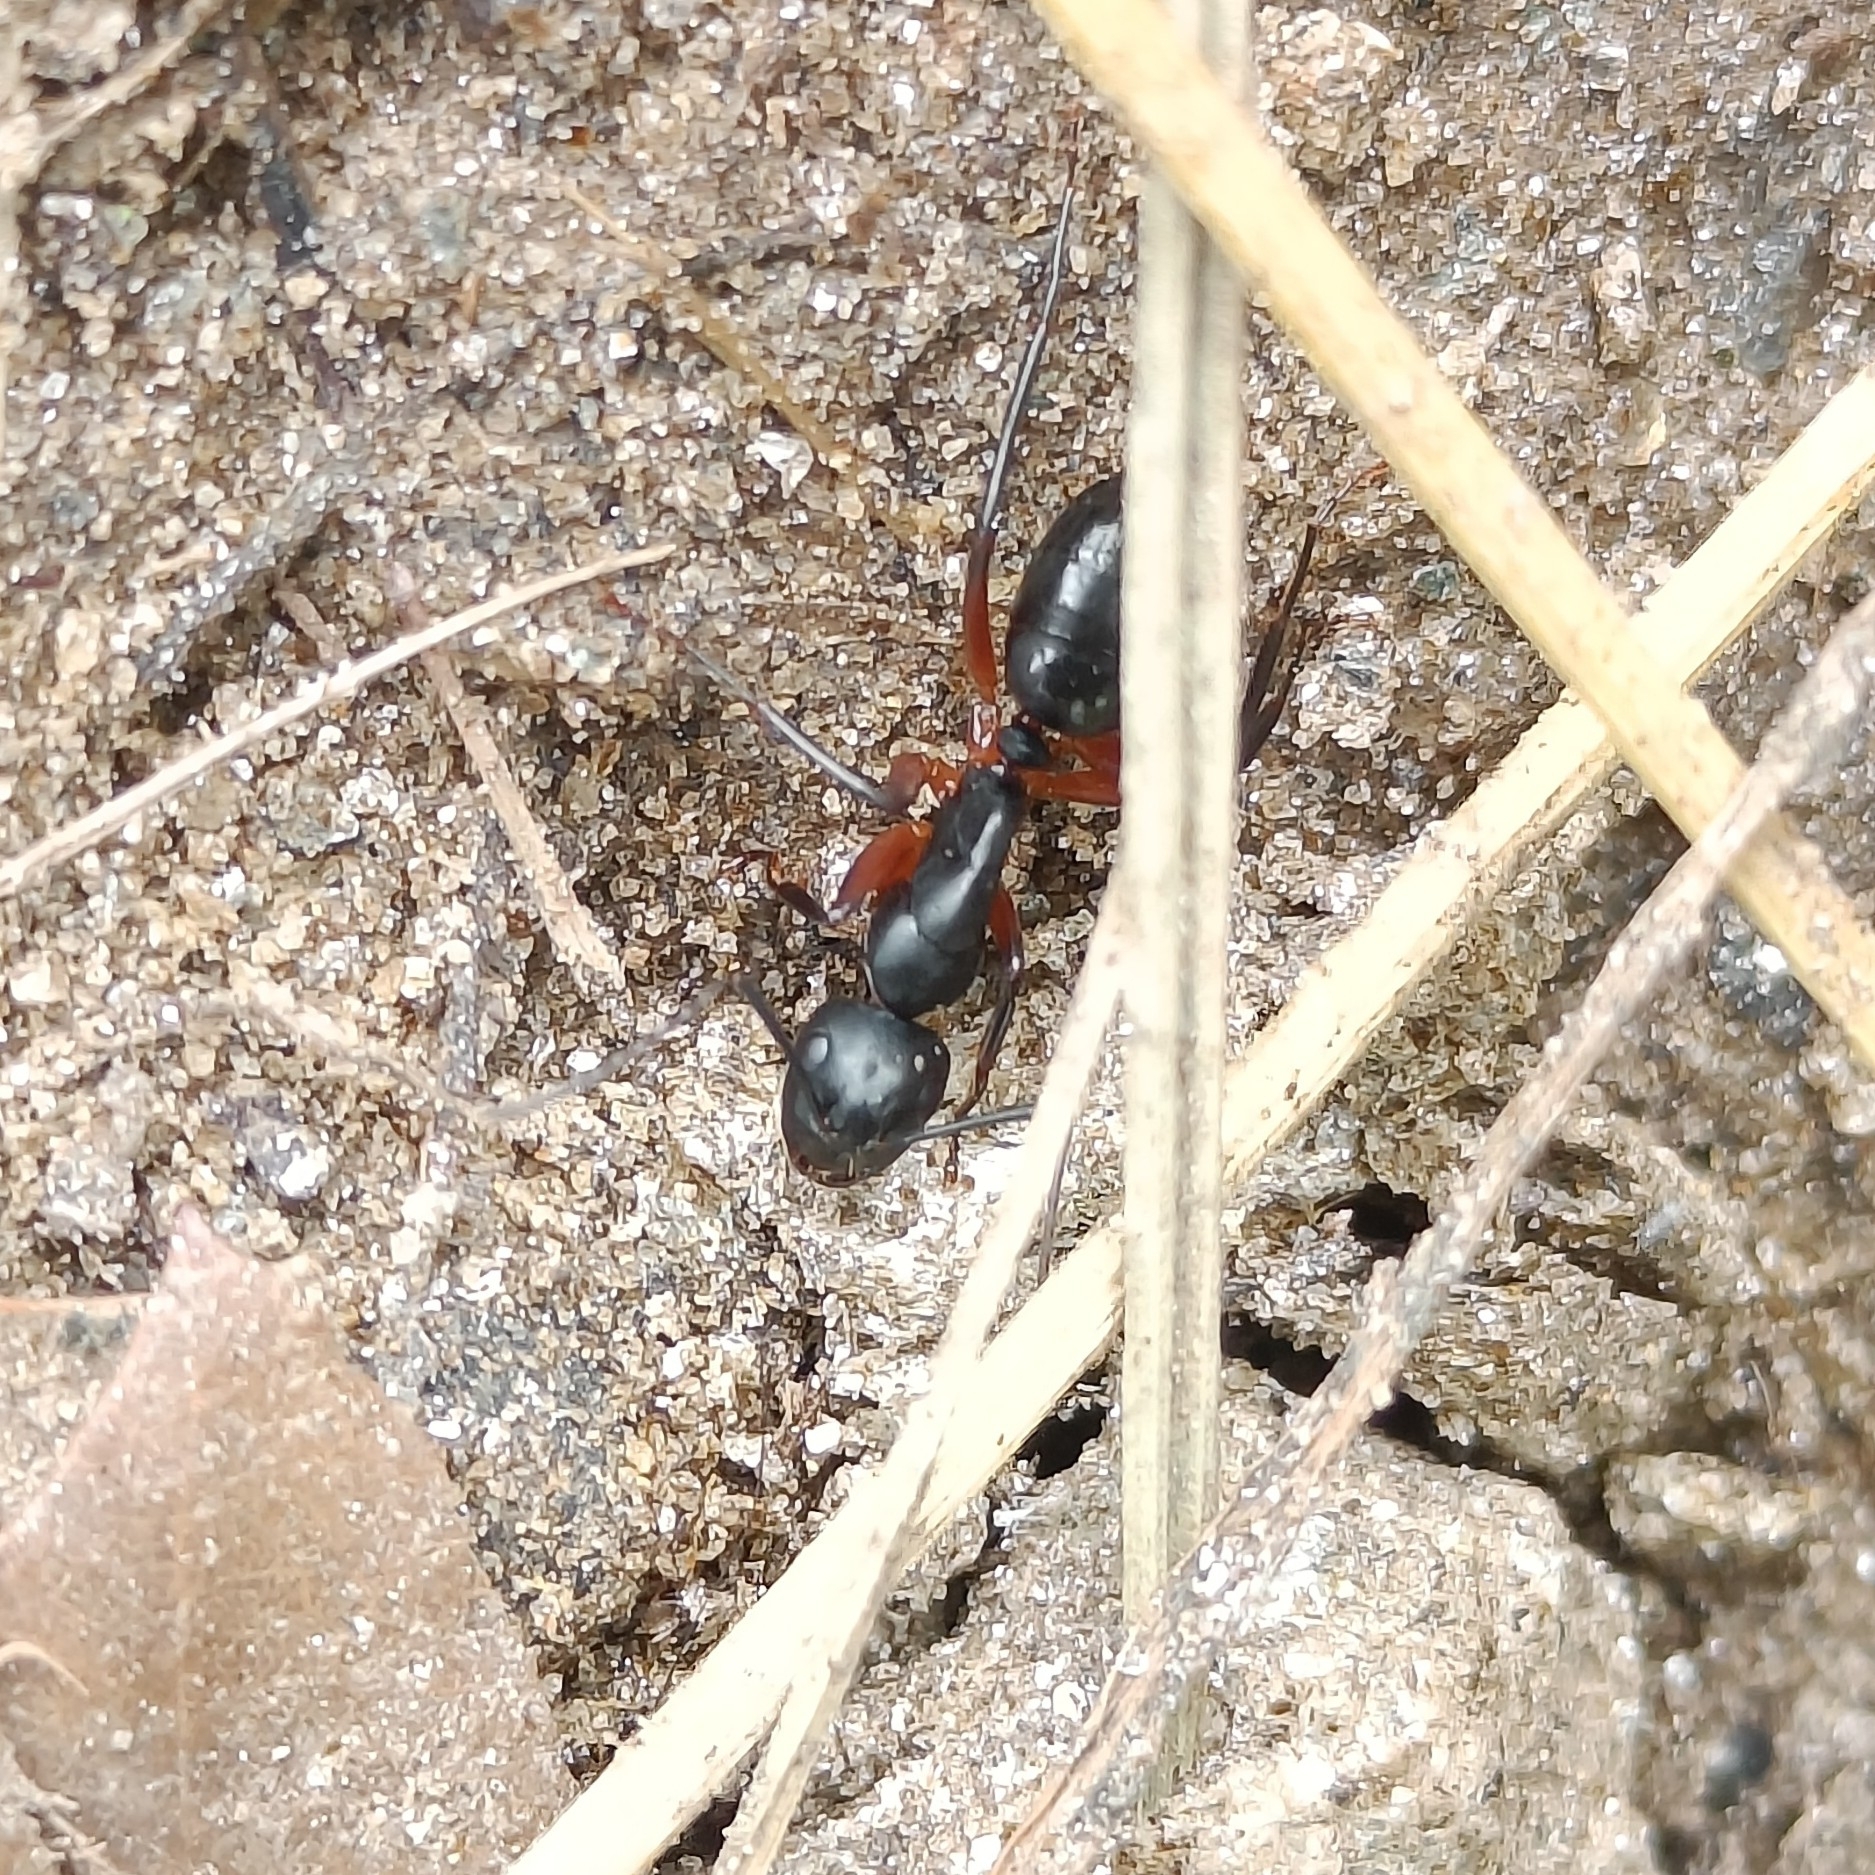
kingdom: Animalia
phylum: Arthropoda
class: Insecta
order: Hymenoptera
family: Formicidae
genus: Camponotus
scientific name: Camponotus compressus
